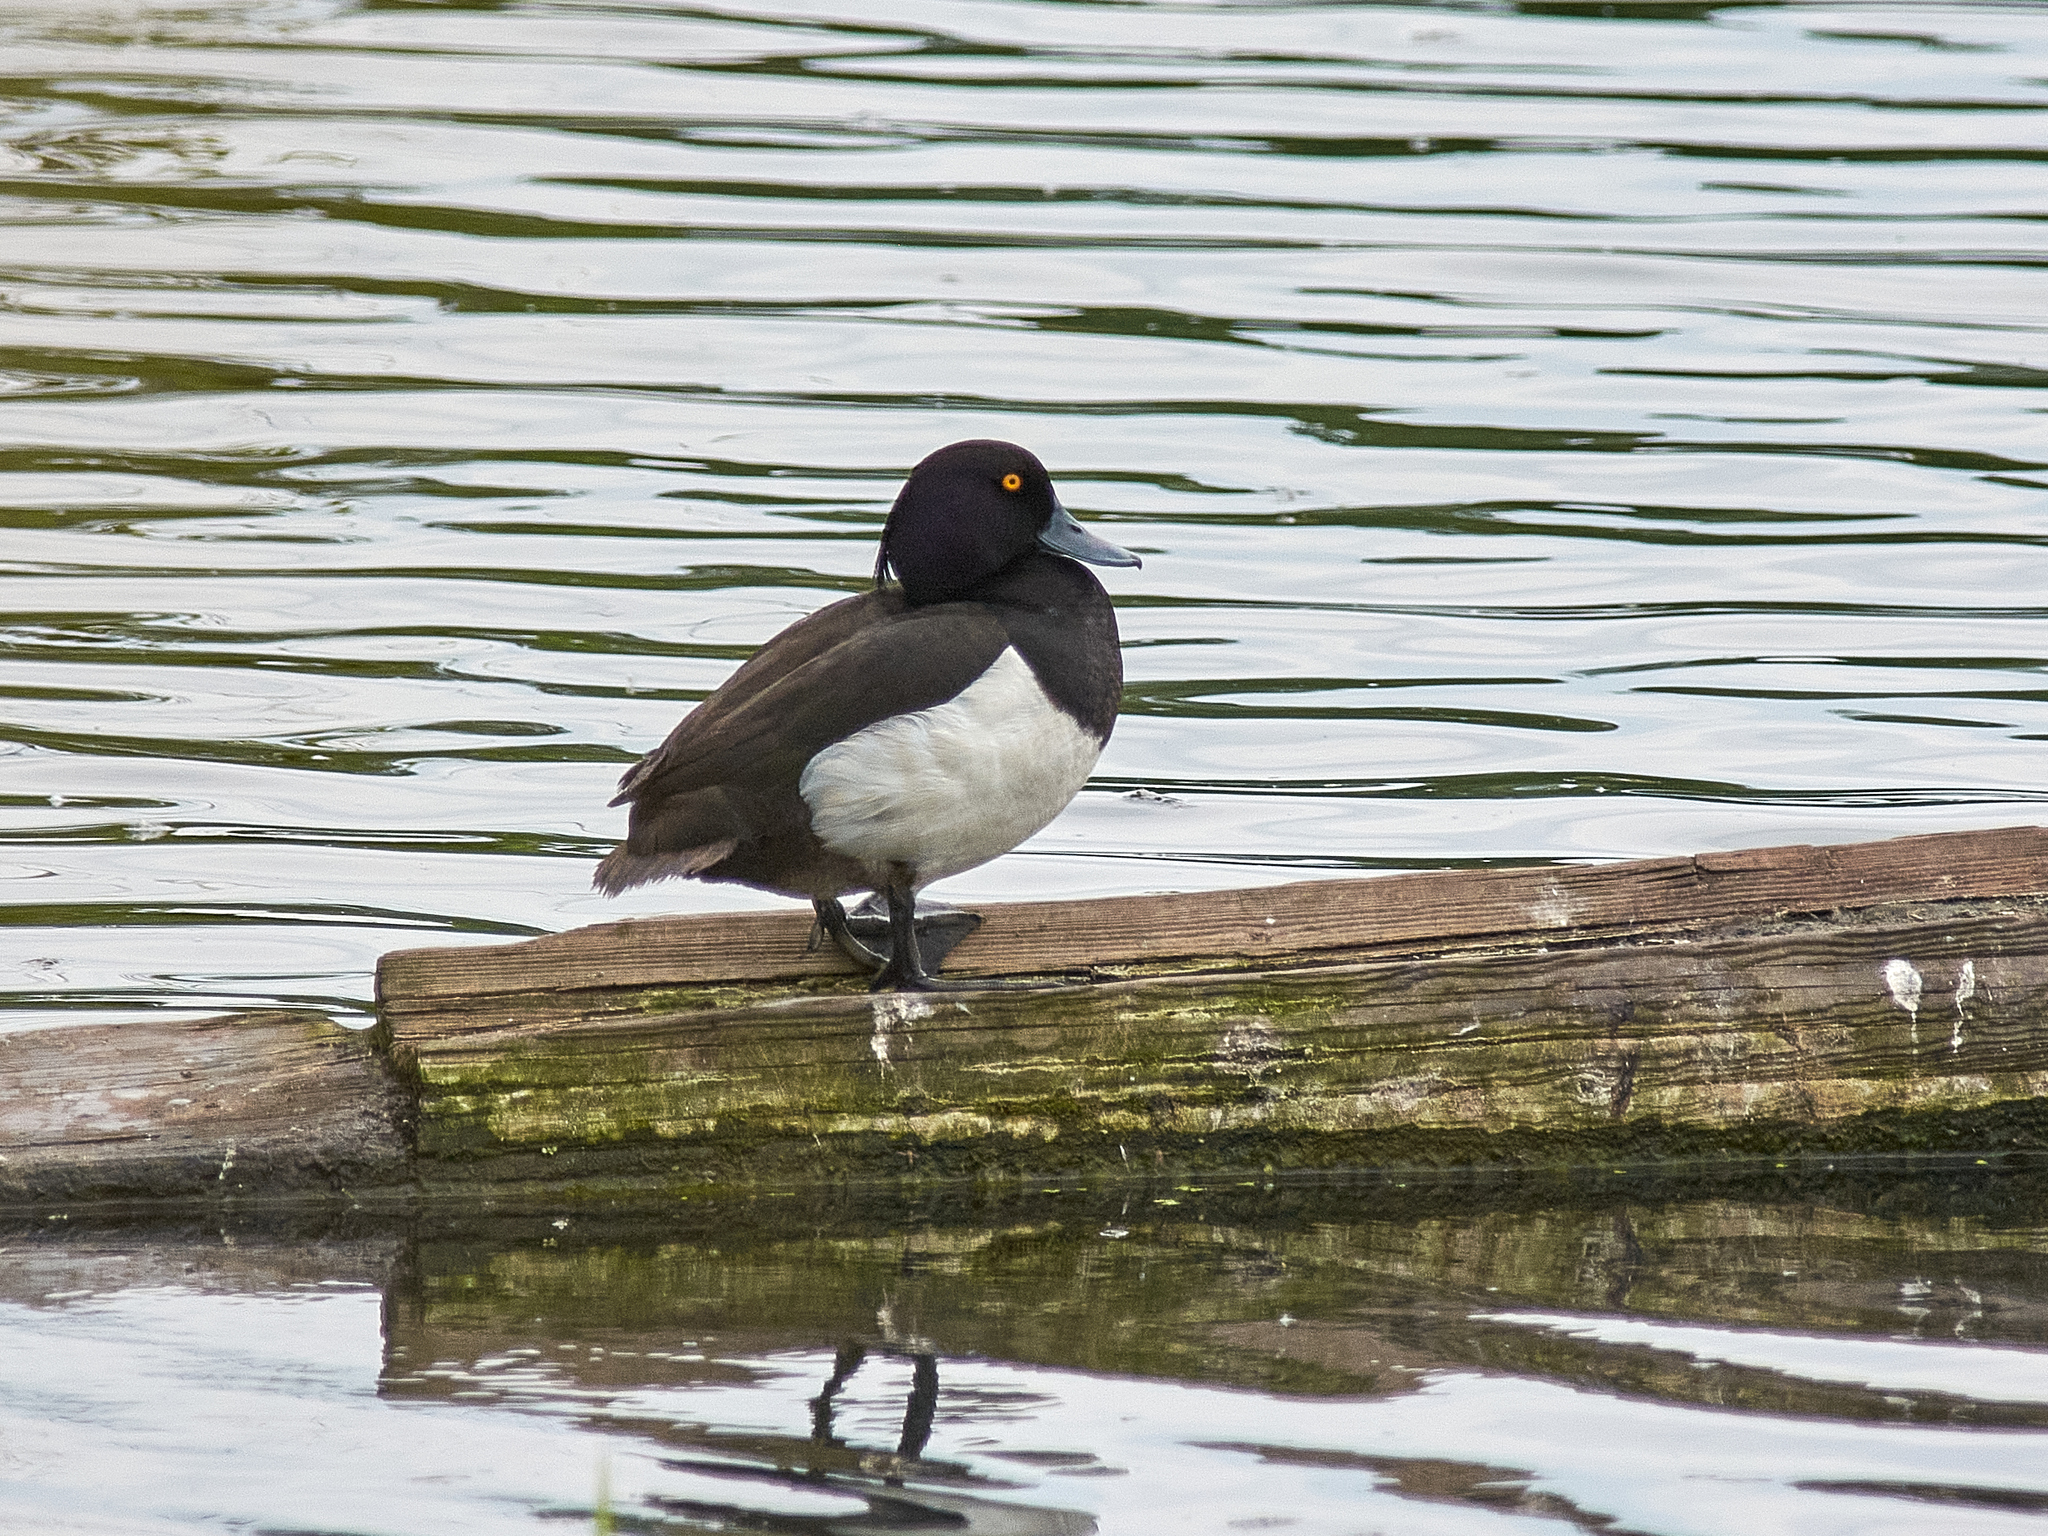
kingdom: Animalia
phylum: Chordata
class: Aves
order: Anseriformes
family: Anatidae
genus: Aythya
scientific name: Aythya fuligula
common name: Tufted duck
